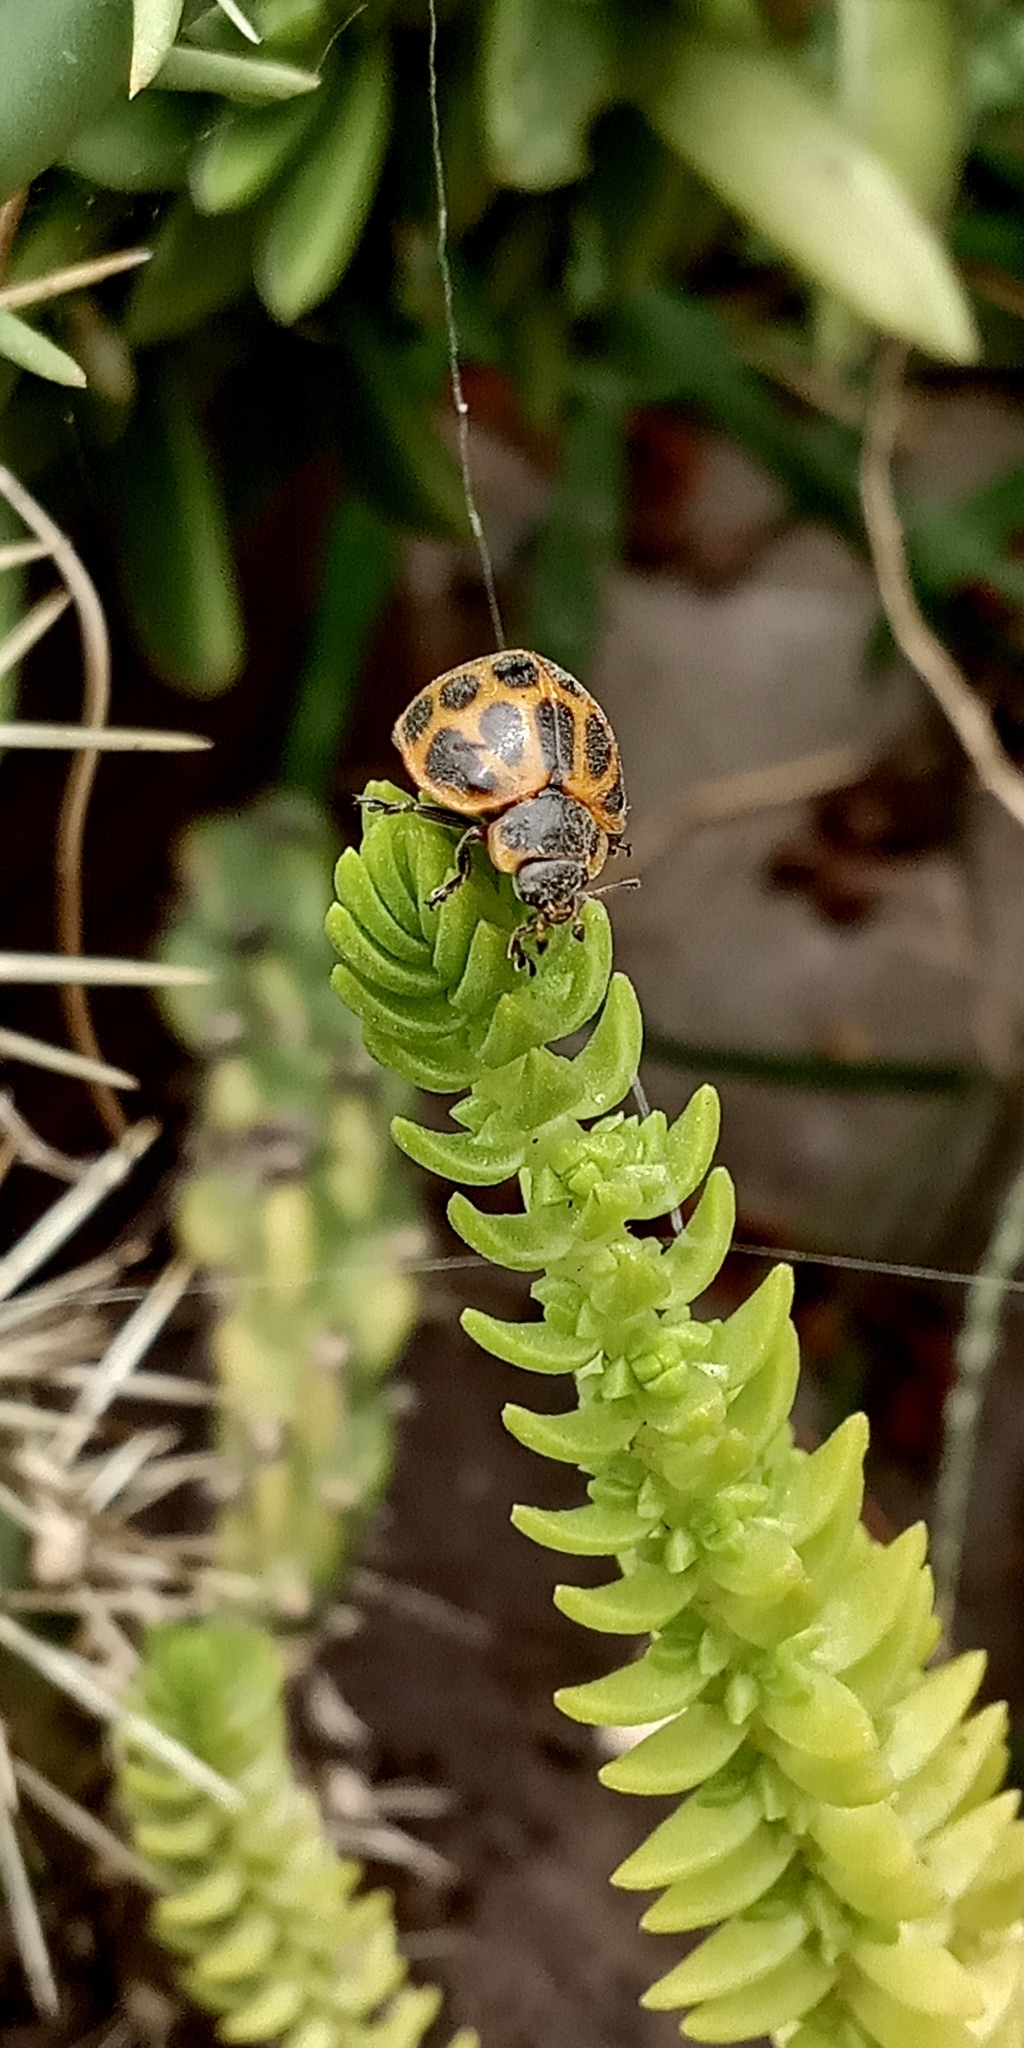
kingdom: Animalia
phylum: Arthropoda
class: Insecta
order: Coleoptera
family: Coccinellidae
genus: Epilachna
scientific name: Epilachna
